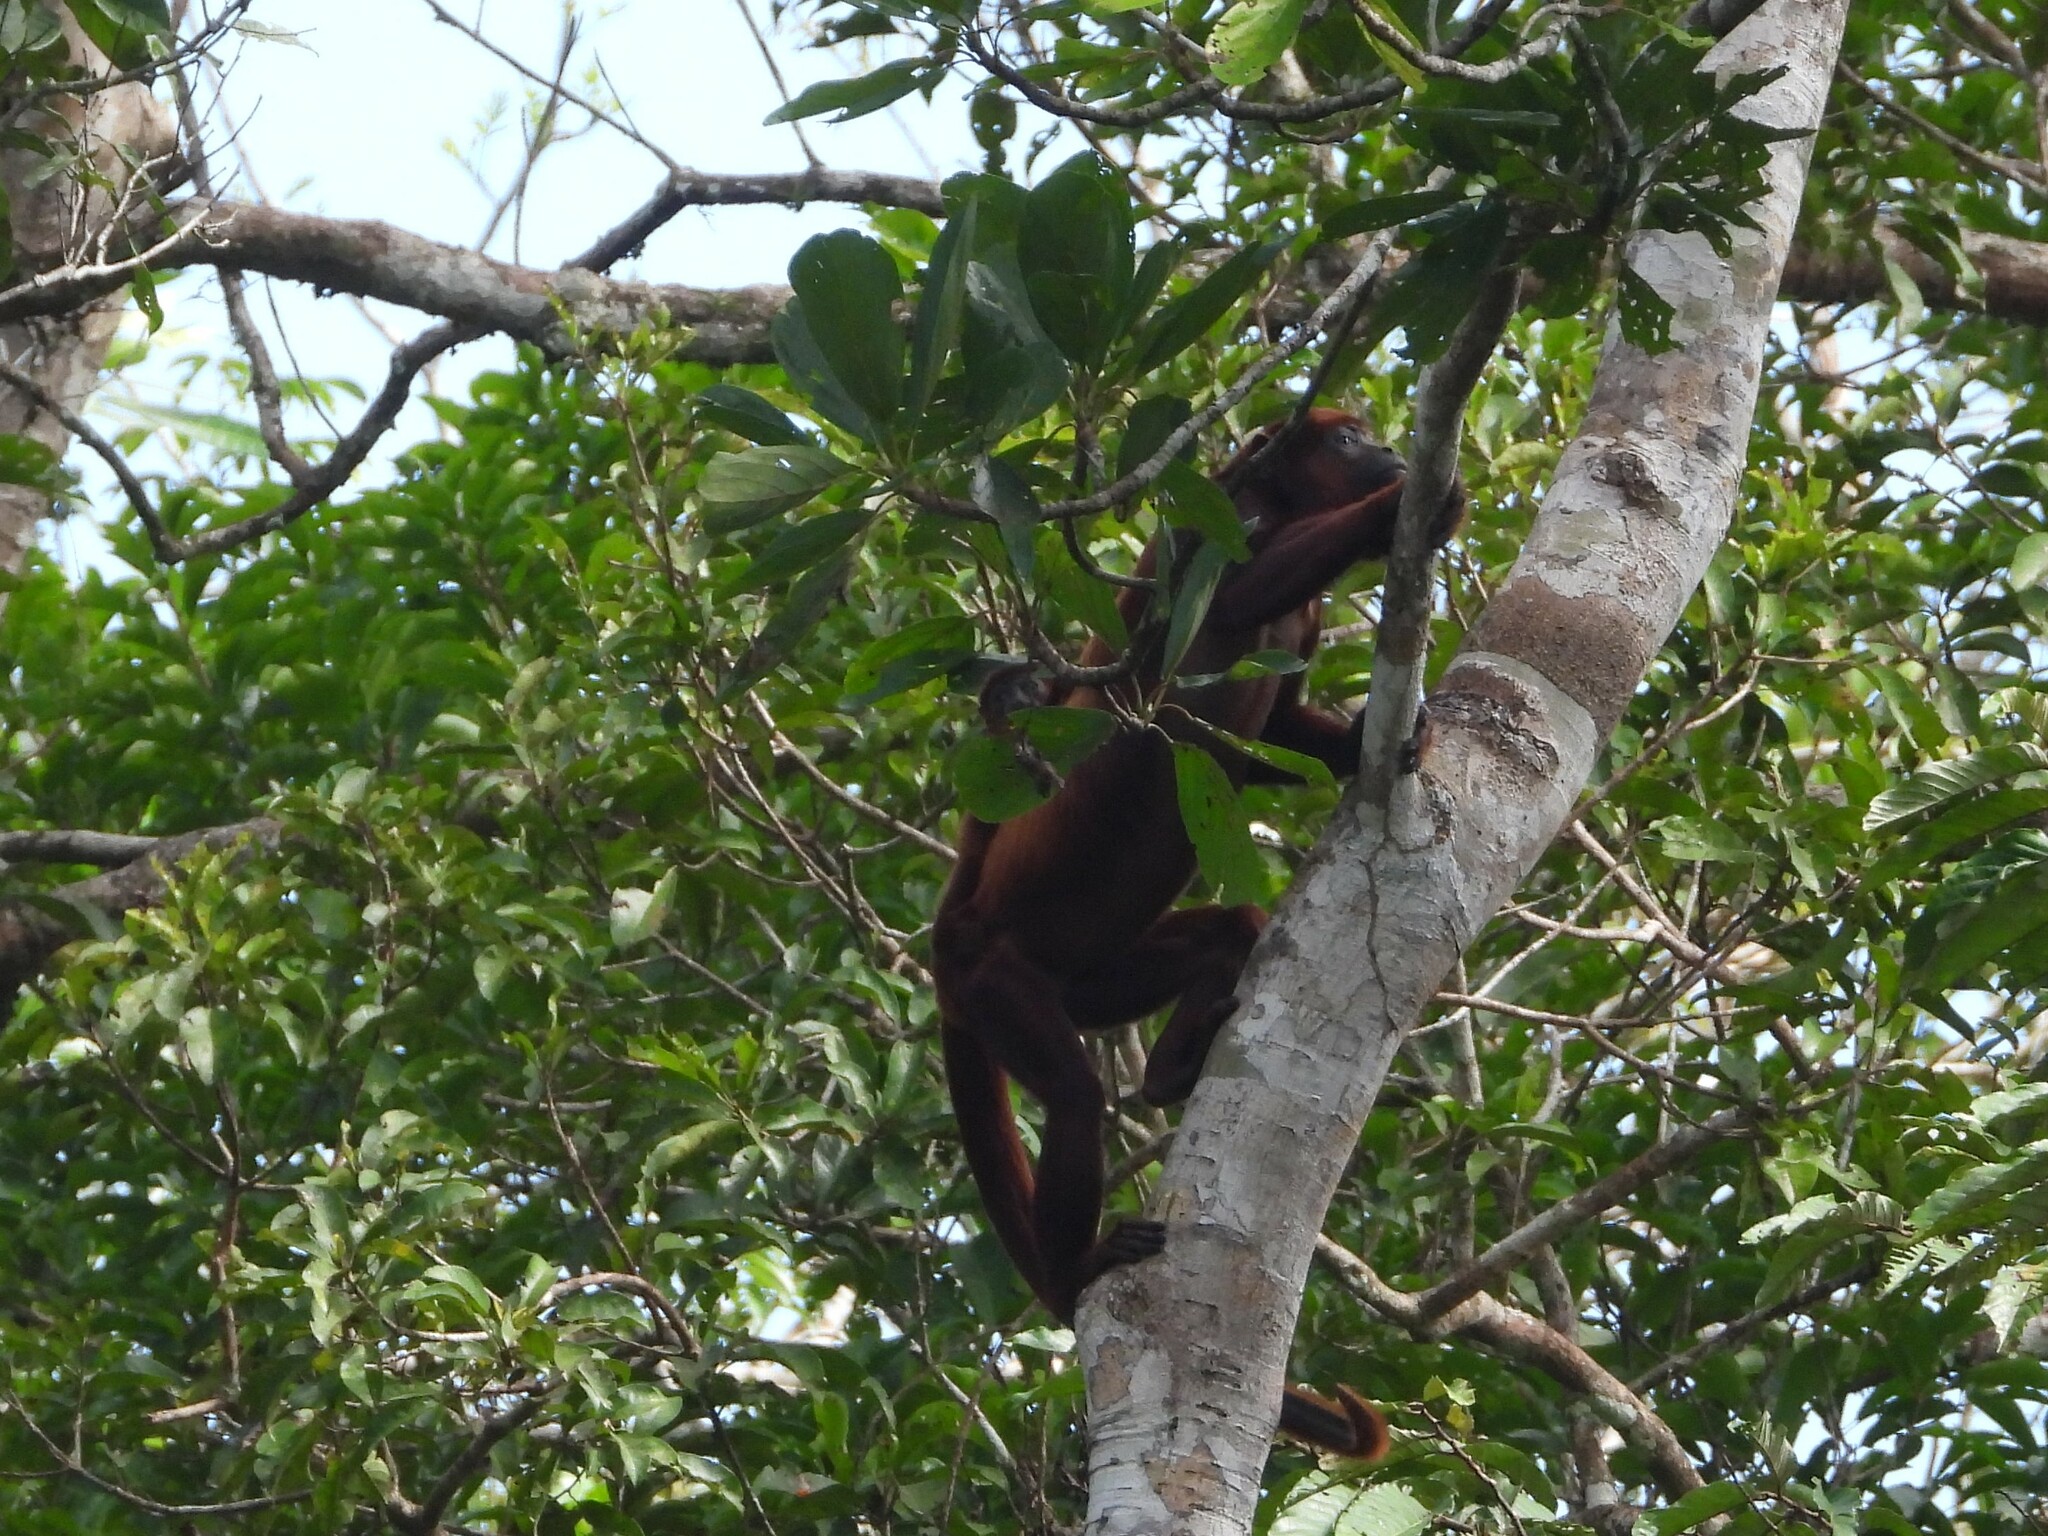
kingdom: Animalia
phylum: Chordata
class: Mammalia
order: Primates
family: Atelidae
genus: Alouatta
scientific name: Alouatta seniculus
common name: Venezuelan red howler
